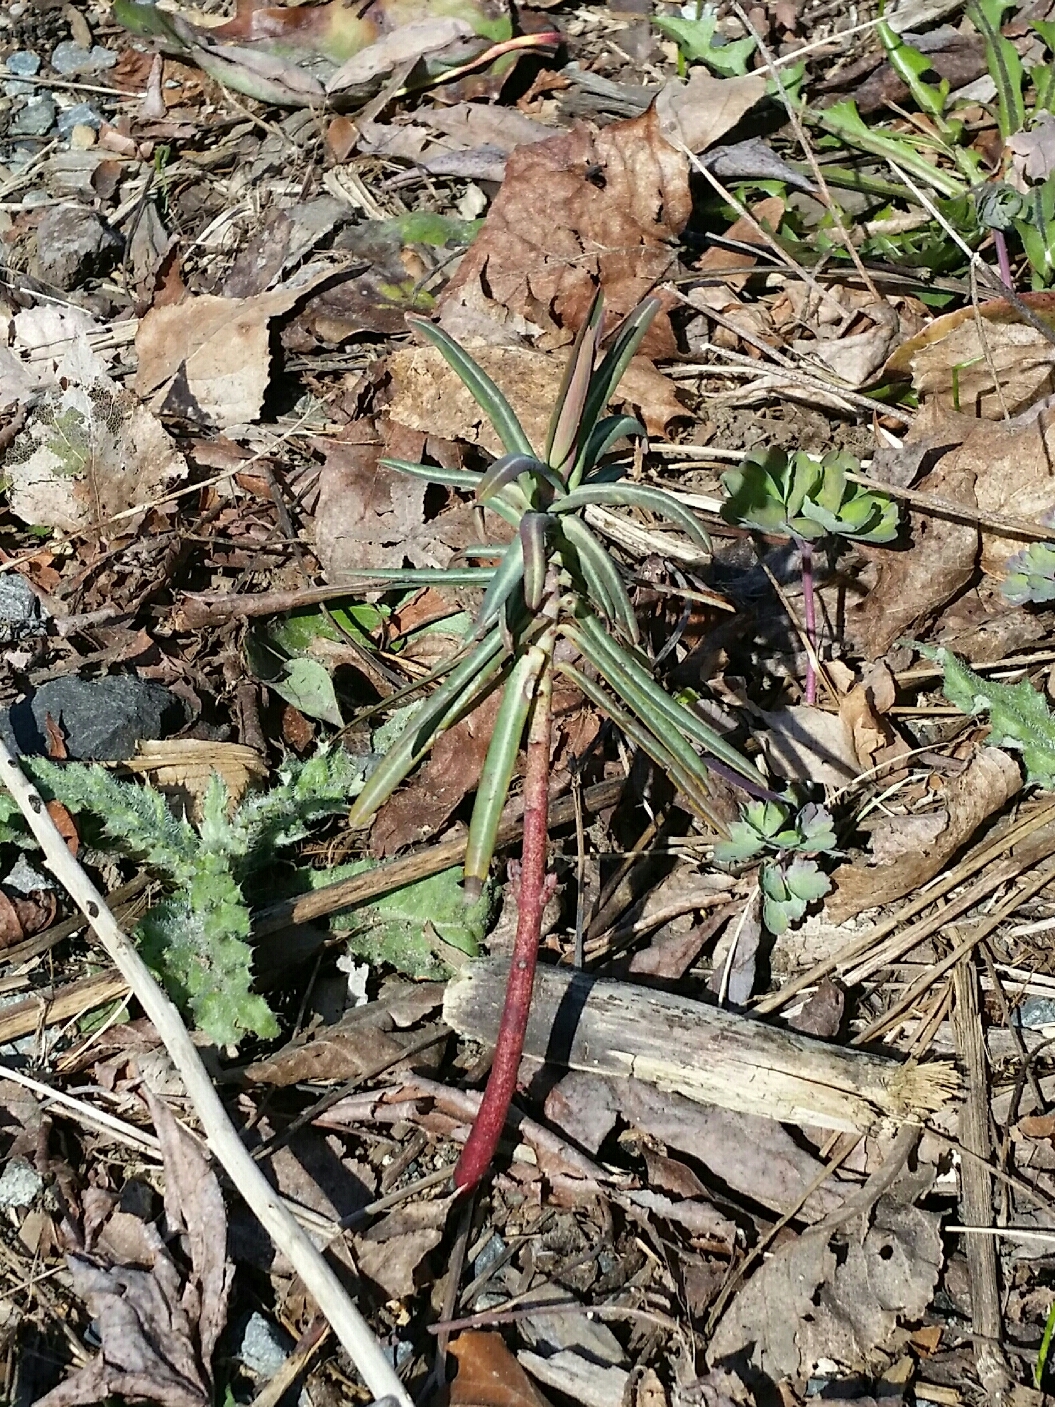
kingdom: Plantae
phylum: Tracheophyta
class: Magnoliopsida
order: Malpighiales
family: Euphorbiaceae
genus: Euphorbia
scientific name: Euphorbia lathyris
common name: Caper spurge
